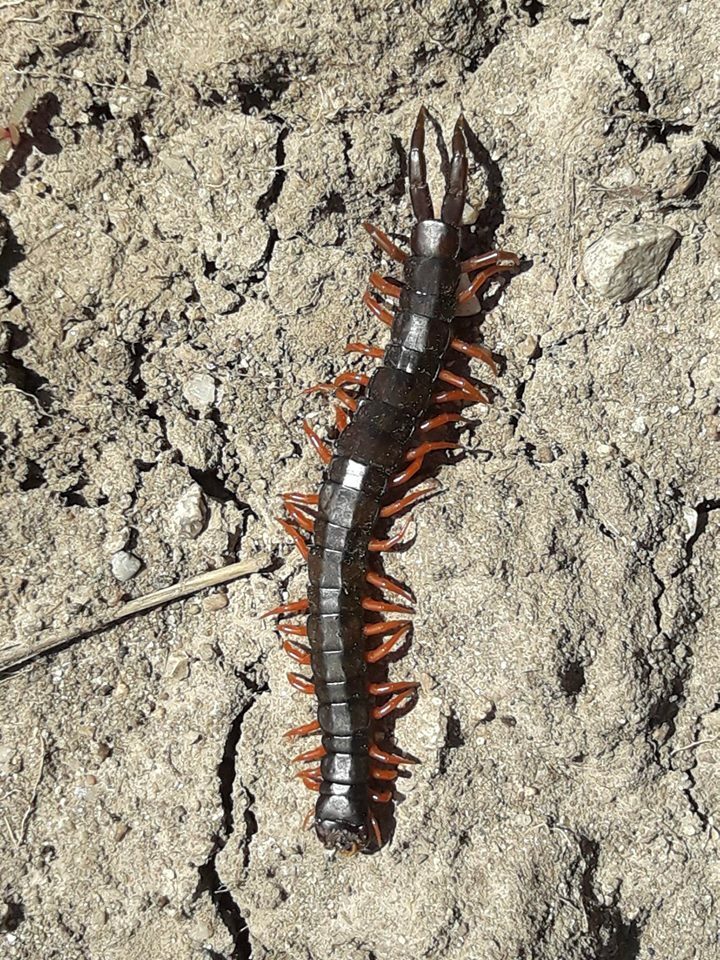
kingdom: Animalia
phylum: Arthropoda
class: Chilopoda
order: Scolopendromorpha
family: Scolopendridae
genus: Scolopendra
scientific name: Scolopendra cingulata
